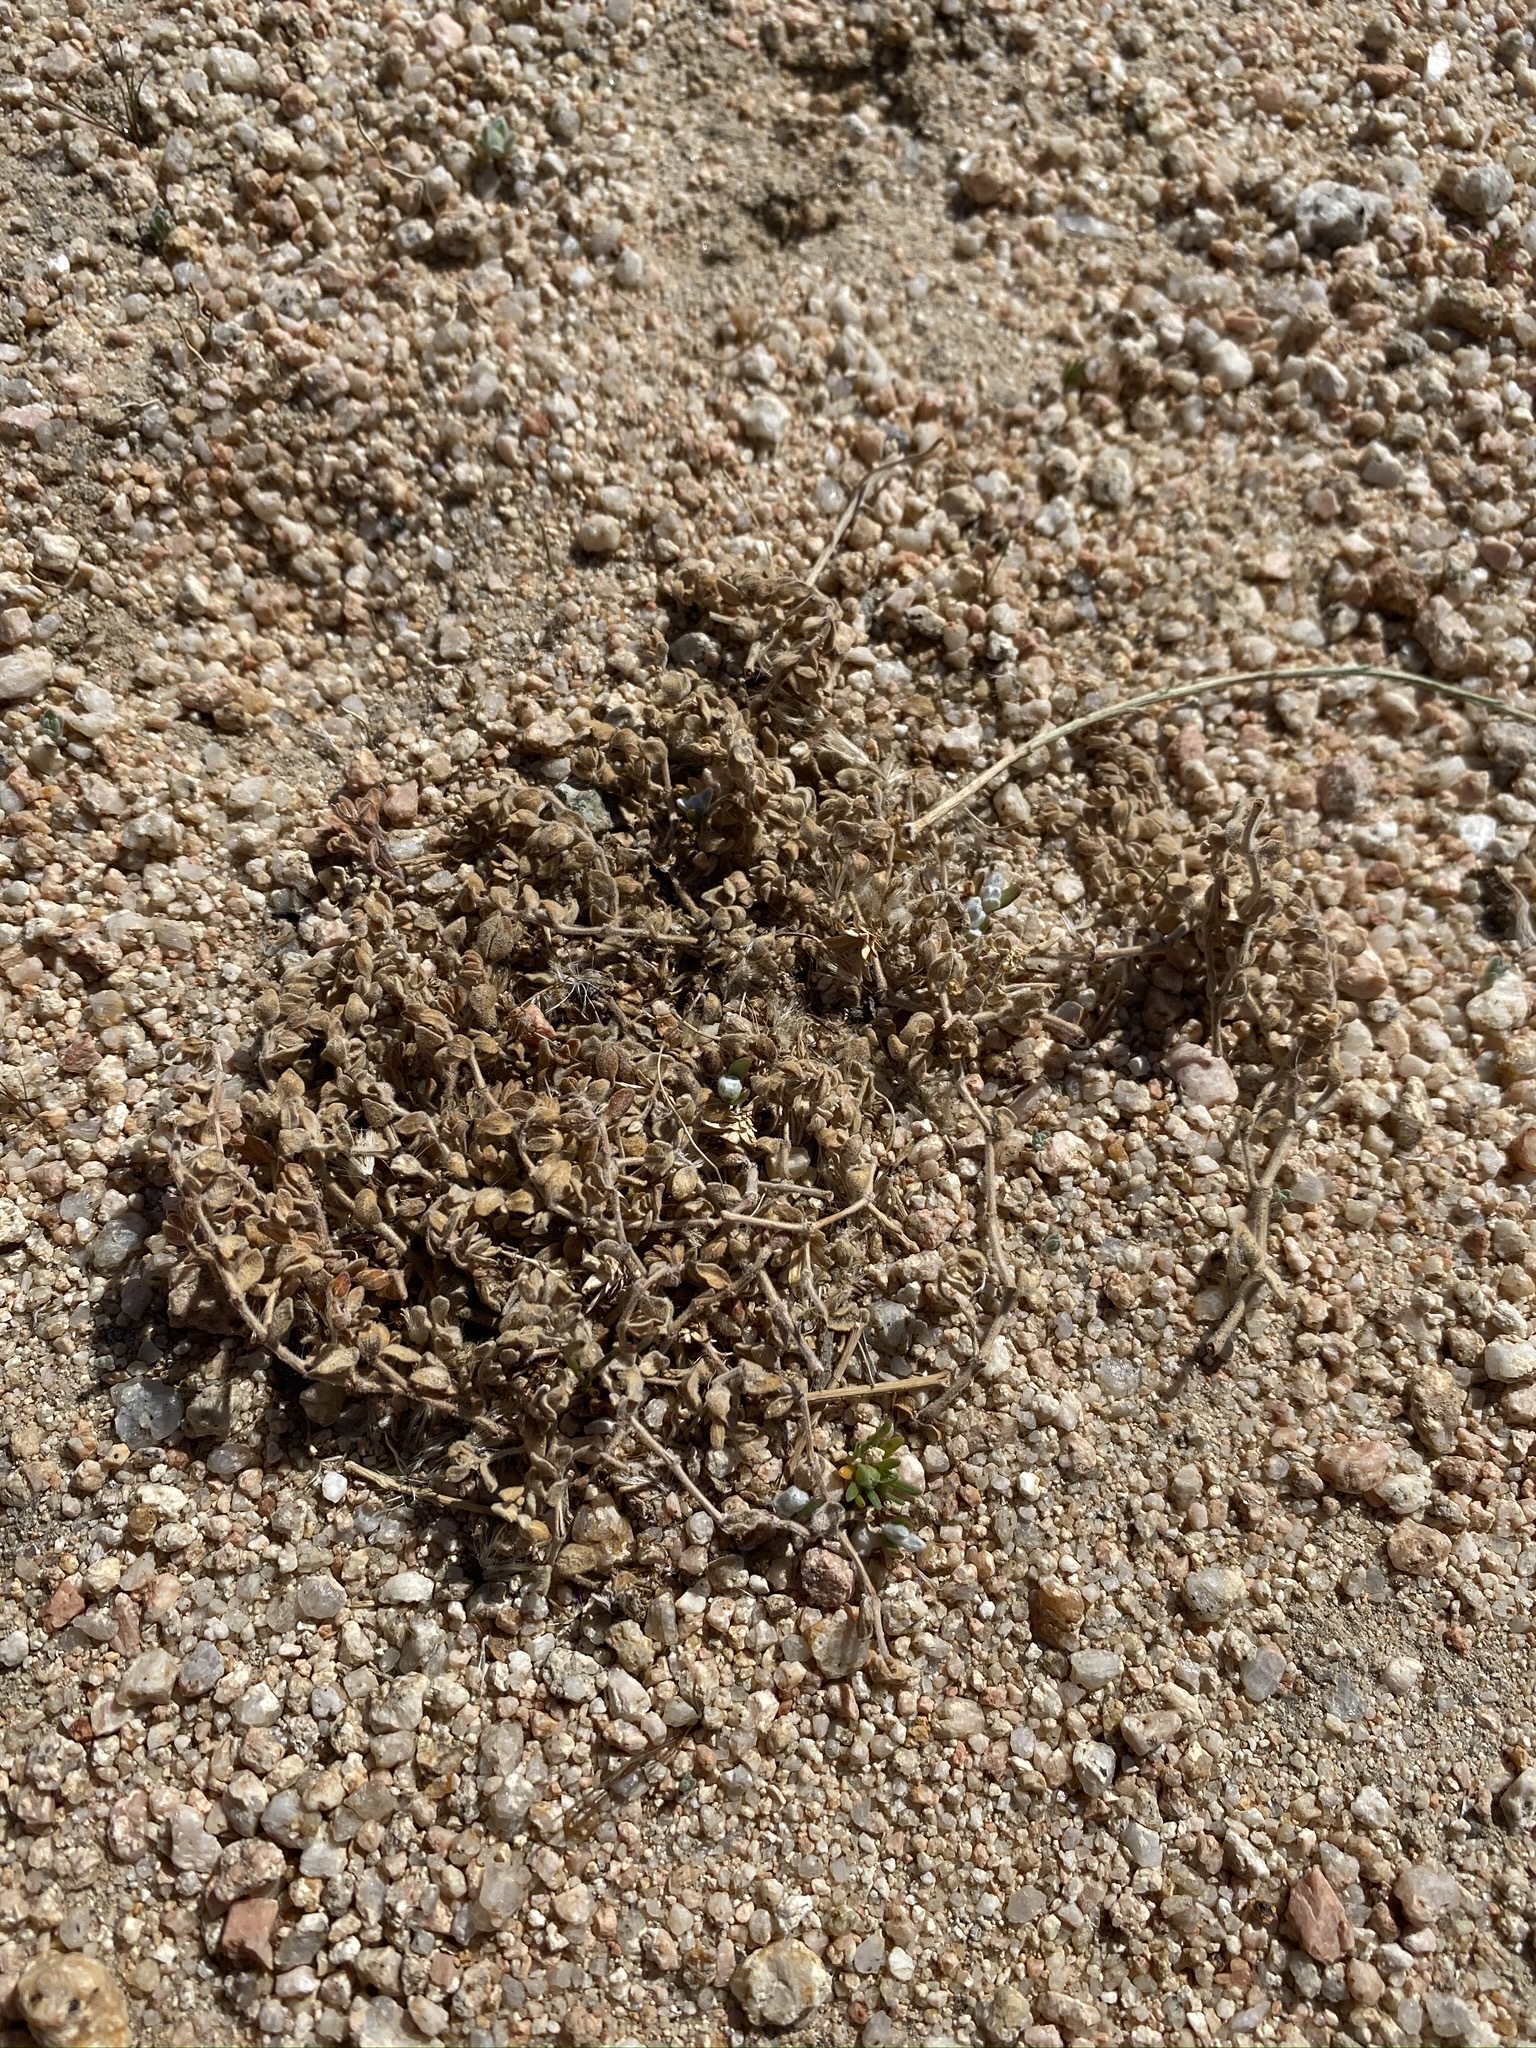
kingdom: Plantae
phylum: Tracheophyta
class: Magnoliopsida
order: Malpighiales
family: Euphorbiaceae
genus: Euphorbia
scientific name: Euphorbia vallis-mortae
